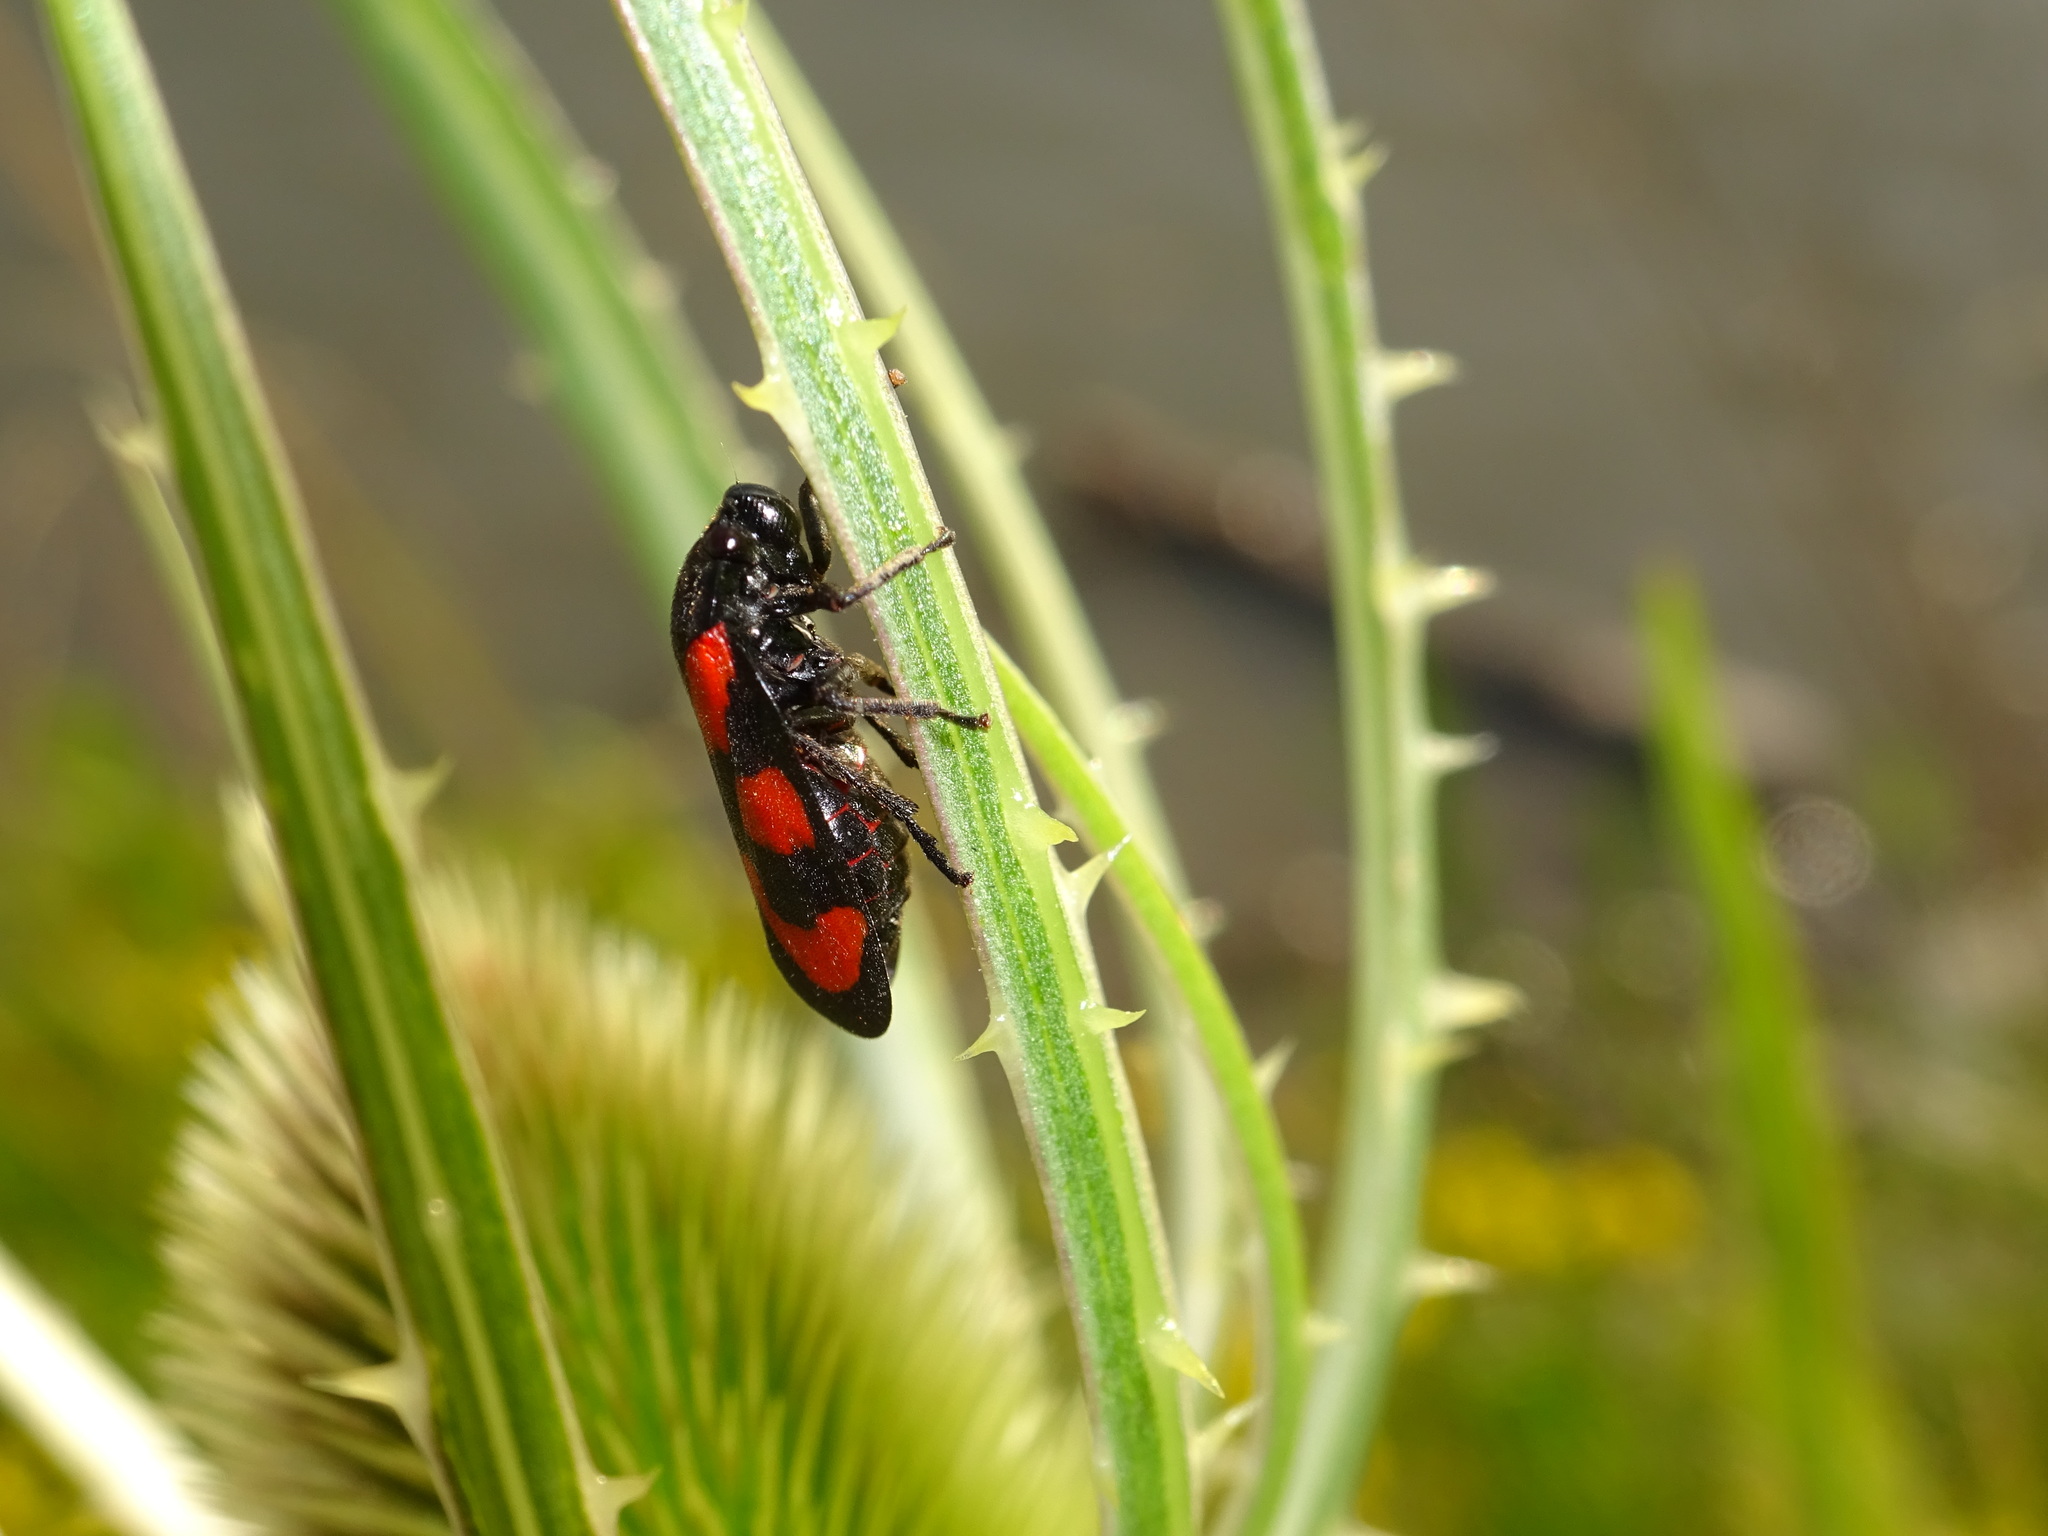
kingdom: Animalia
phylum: Arthropoda
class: Insecta
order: Hemiptera
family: Cercopidae
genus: Cercopis
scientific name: Cercopis vulnerata
